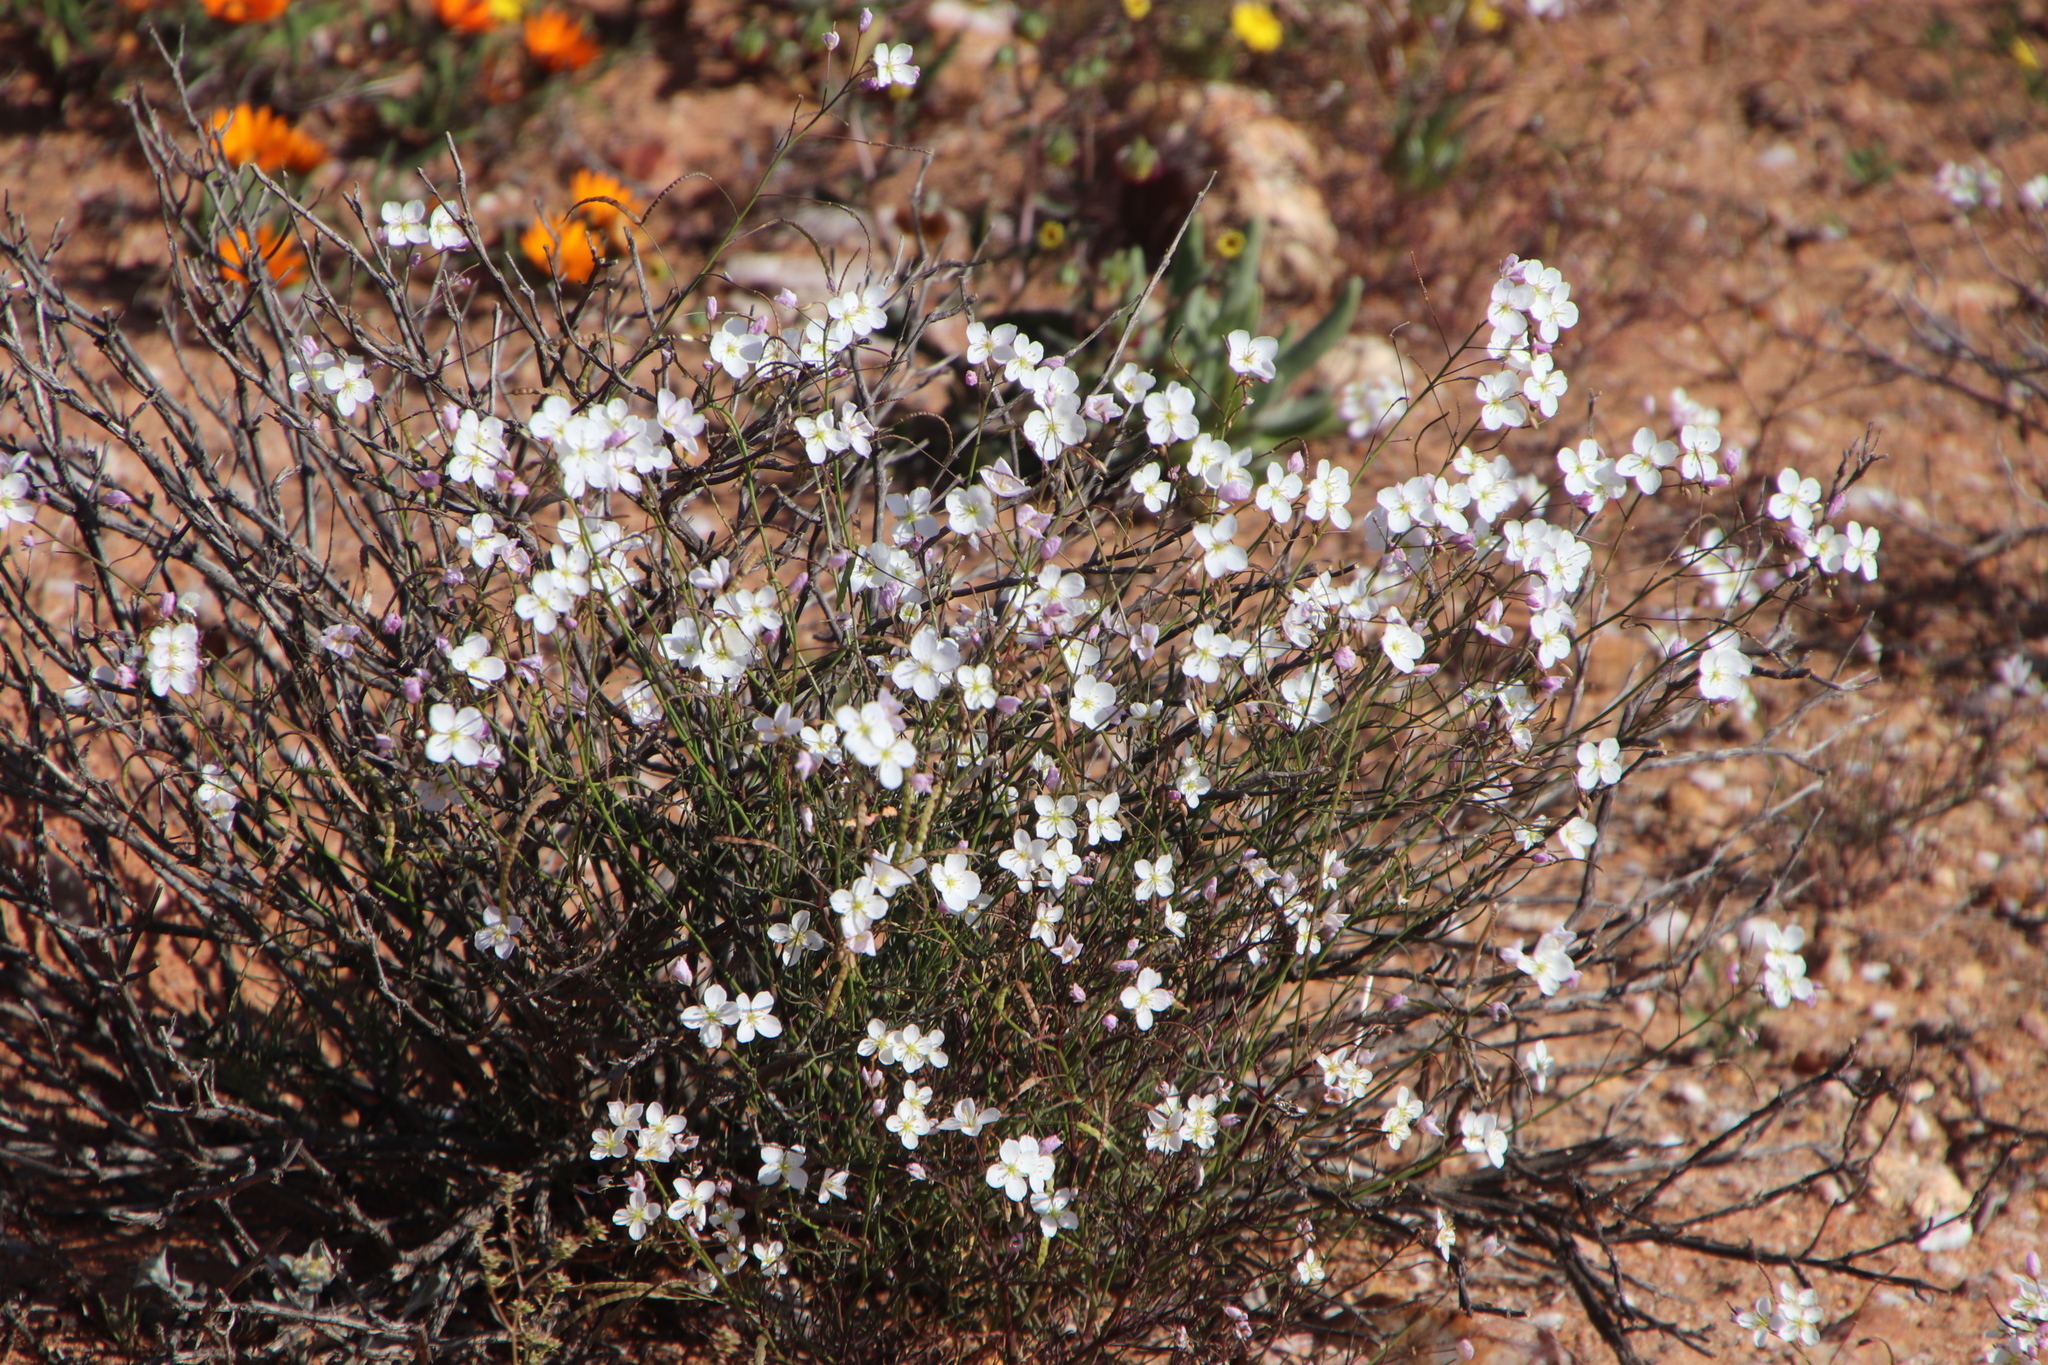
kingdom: Plantae
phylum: Tracheophyta
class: Magnoliopsida
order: Brassicales
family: Brassicaceae
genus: Heliophila
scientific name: Heliophila variabilis
